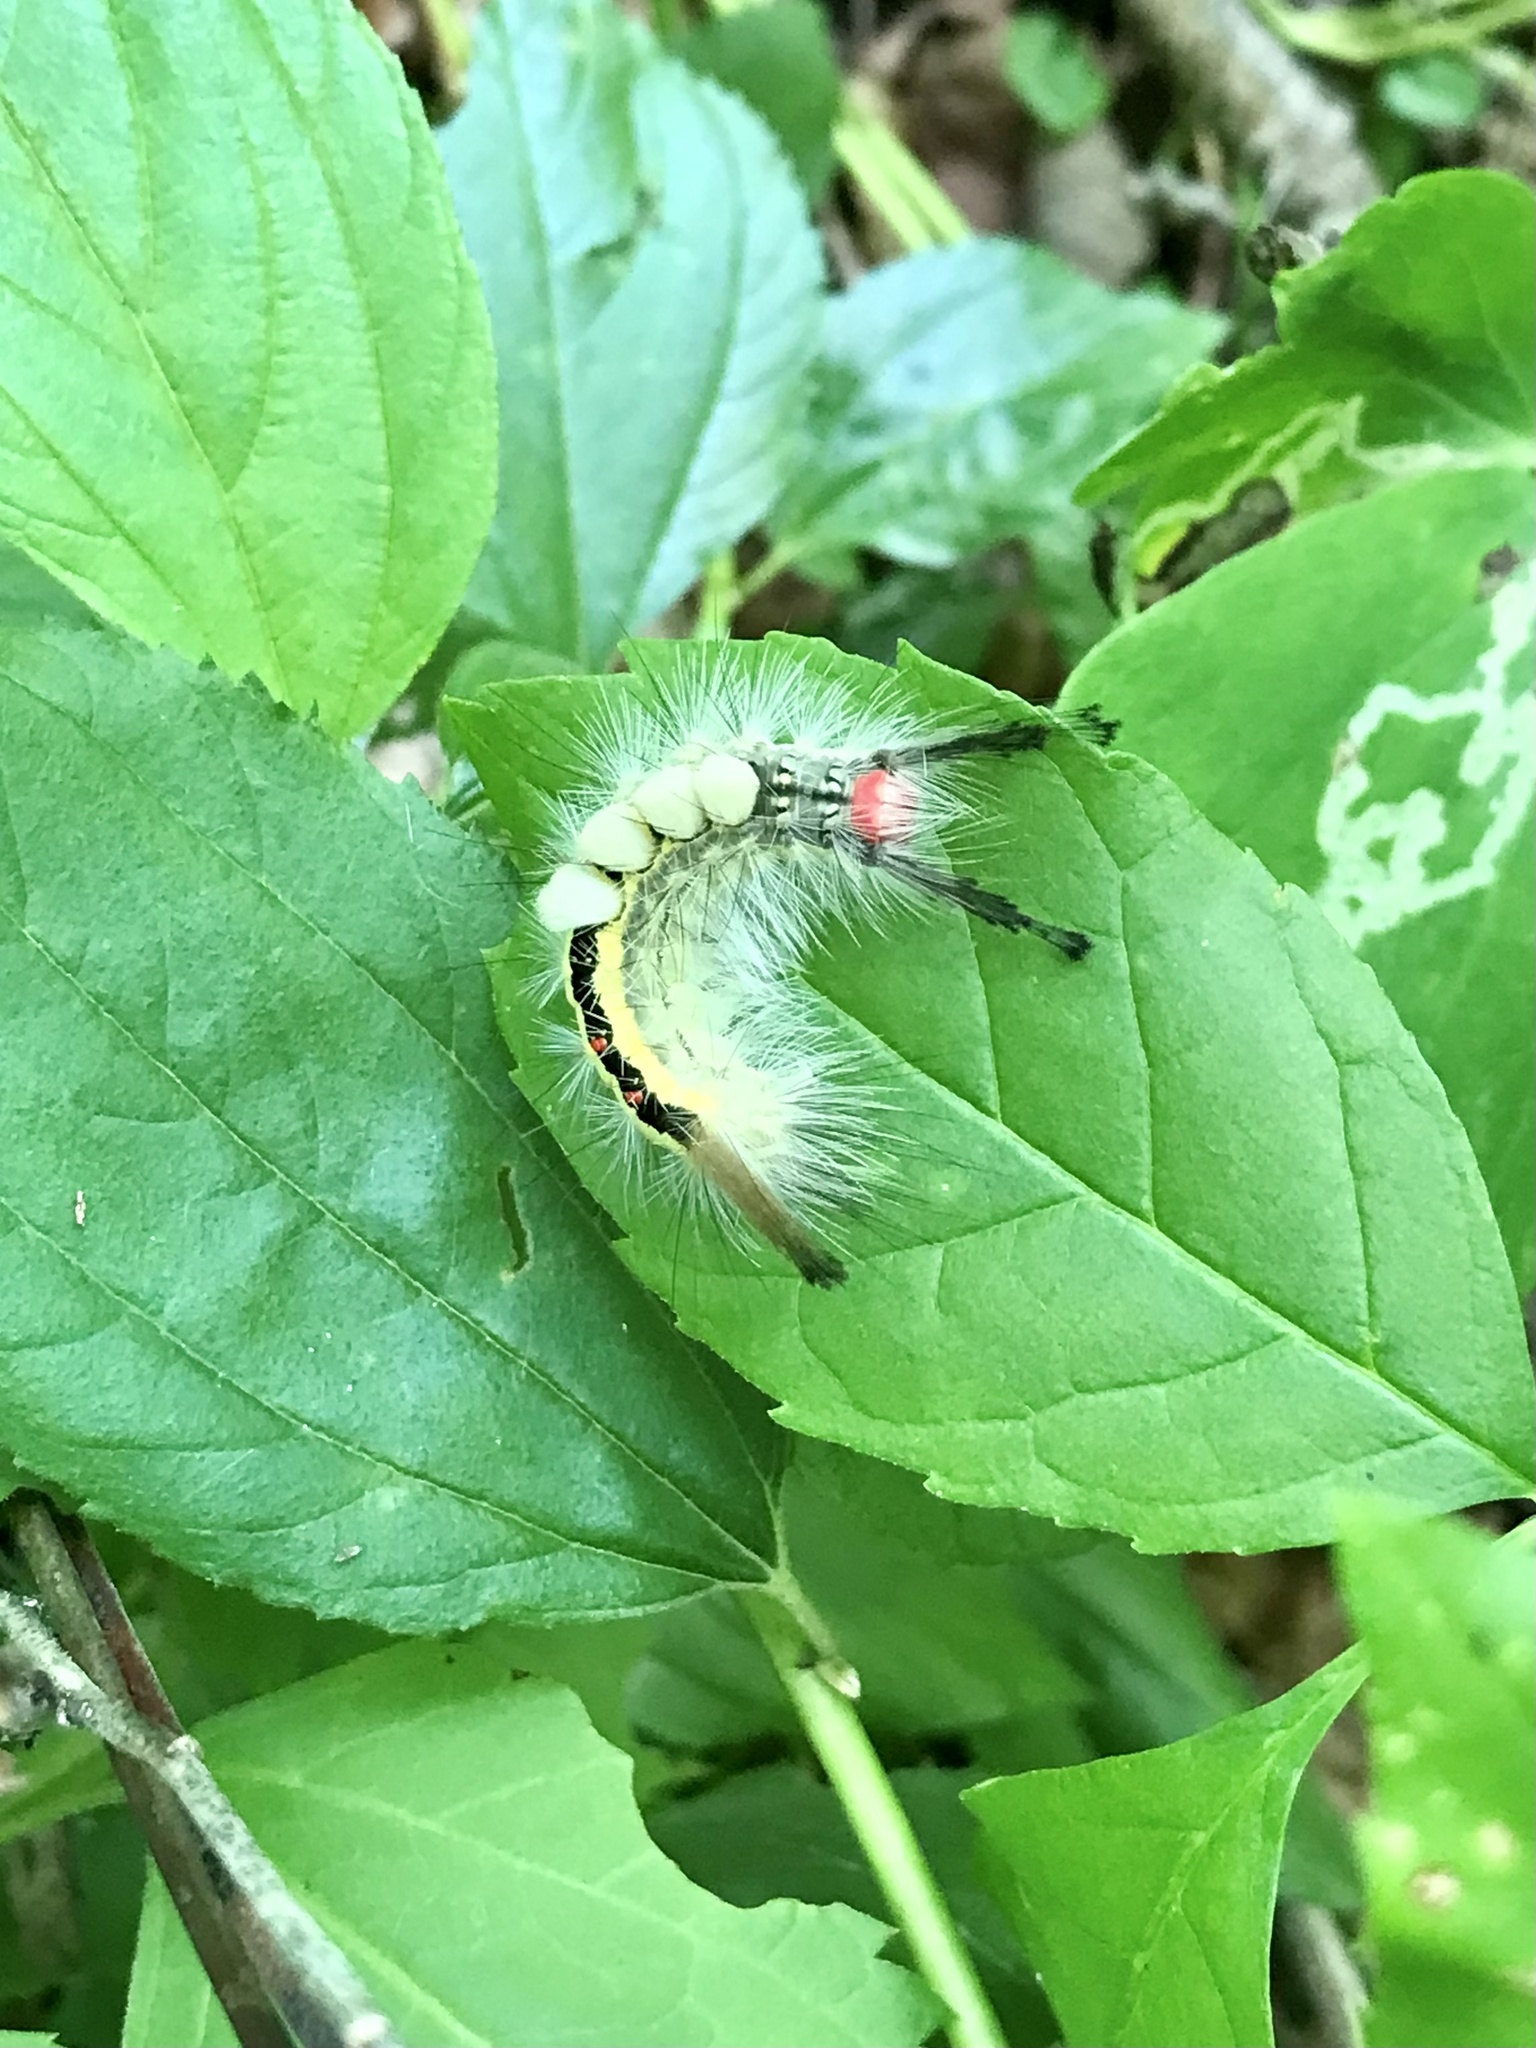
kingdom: Animalia
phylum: Arthropoda
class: Insecta
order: Lepidoptera
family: Erebidae
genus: Orgyia
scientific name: Orgyia leucostigma
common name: White-marked tussock moth
